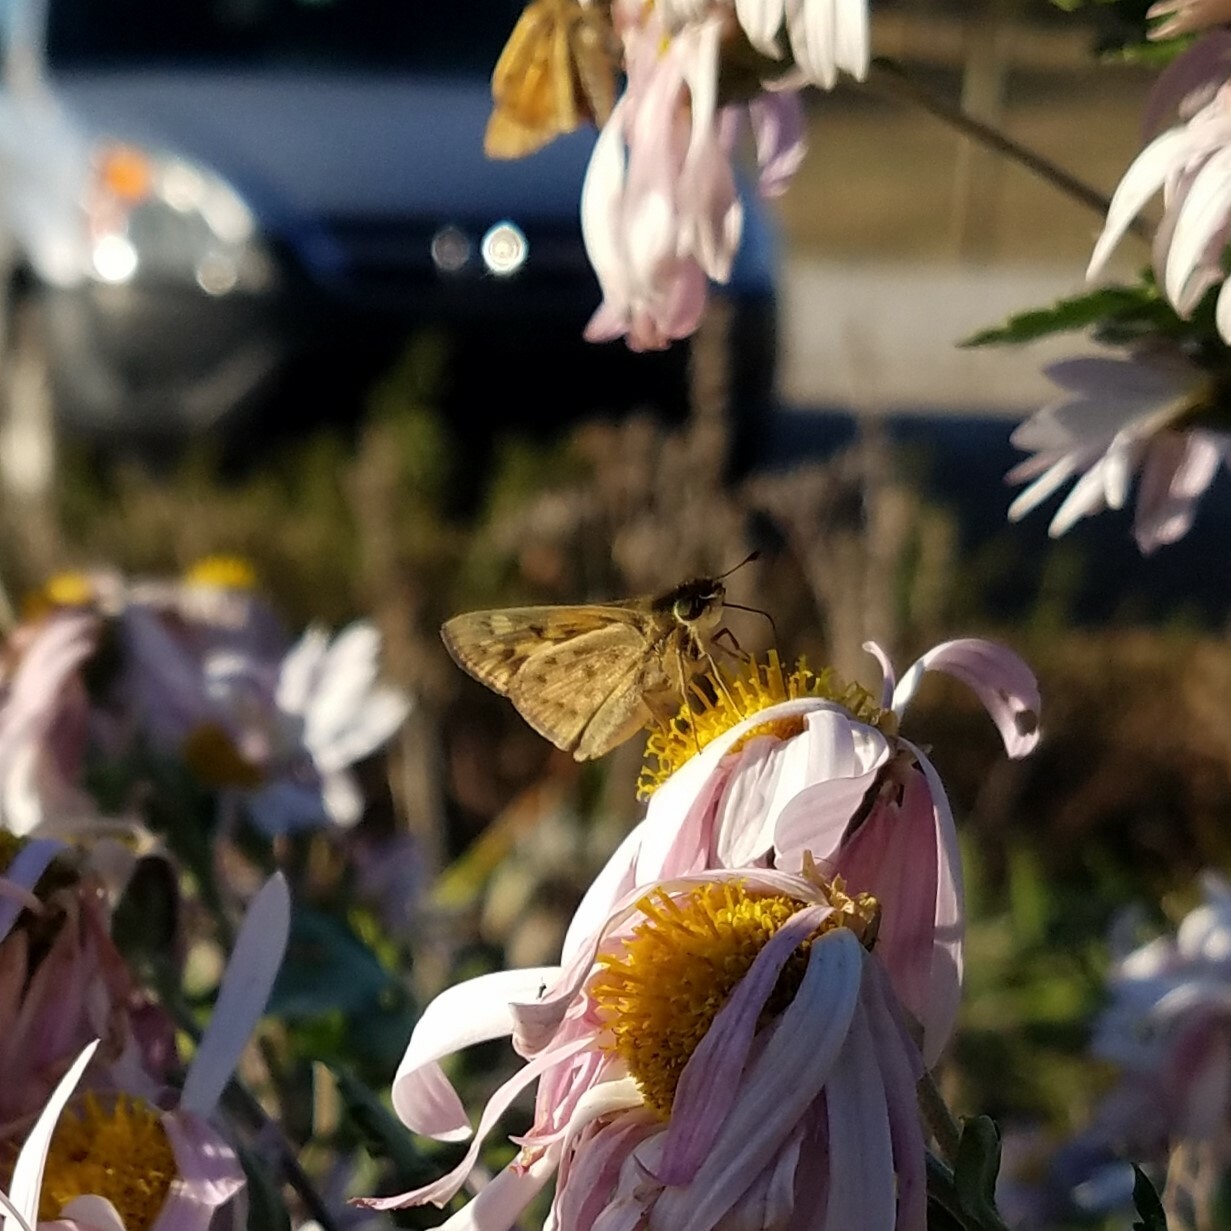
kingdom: Animalia
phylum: Arthropoda
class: Insecta
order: Lepidoptera
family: Hesperiidae
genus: Hylephila
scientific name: Hylephila phyleus
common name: Fiery skipper
